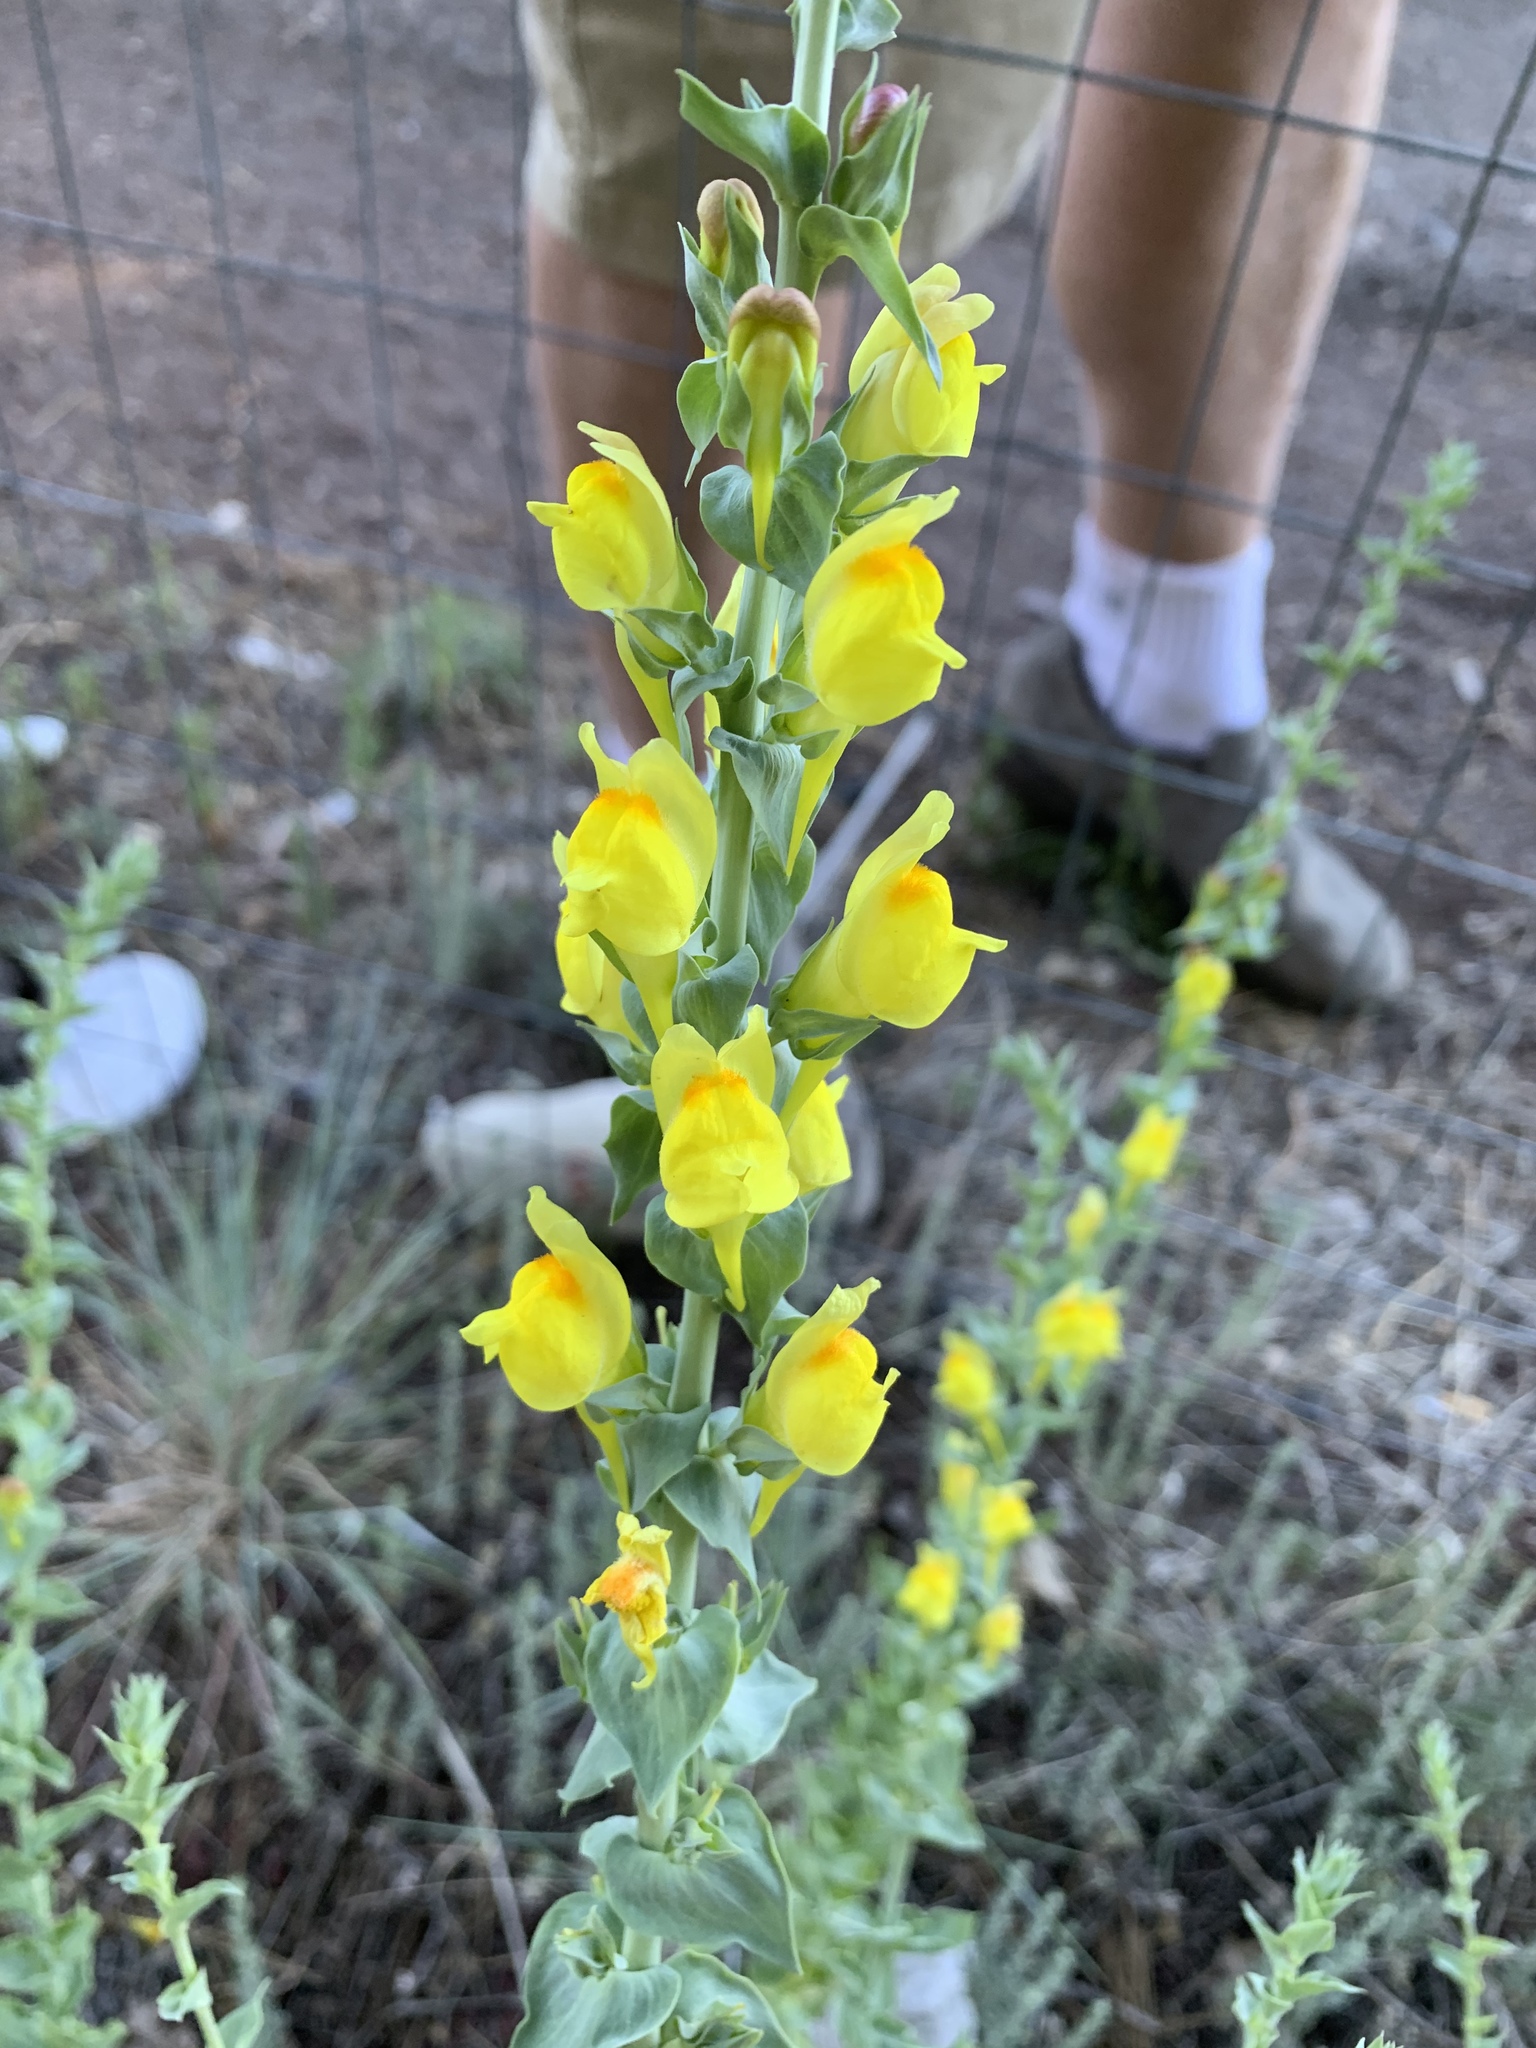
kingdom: Plantae
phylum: Tracheophyta
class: Magnoliopsida
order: Lamiales
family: Plantaginaceae
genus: Linaria
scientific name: Linaria dalmatica
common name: Dalmatian toadflax
